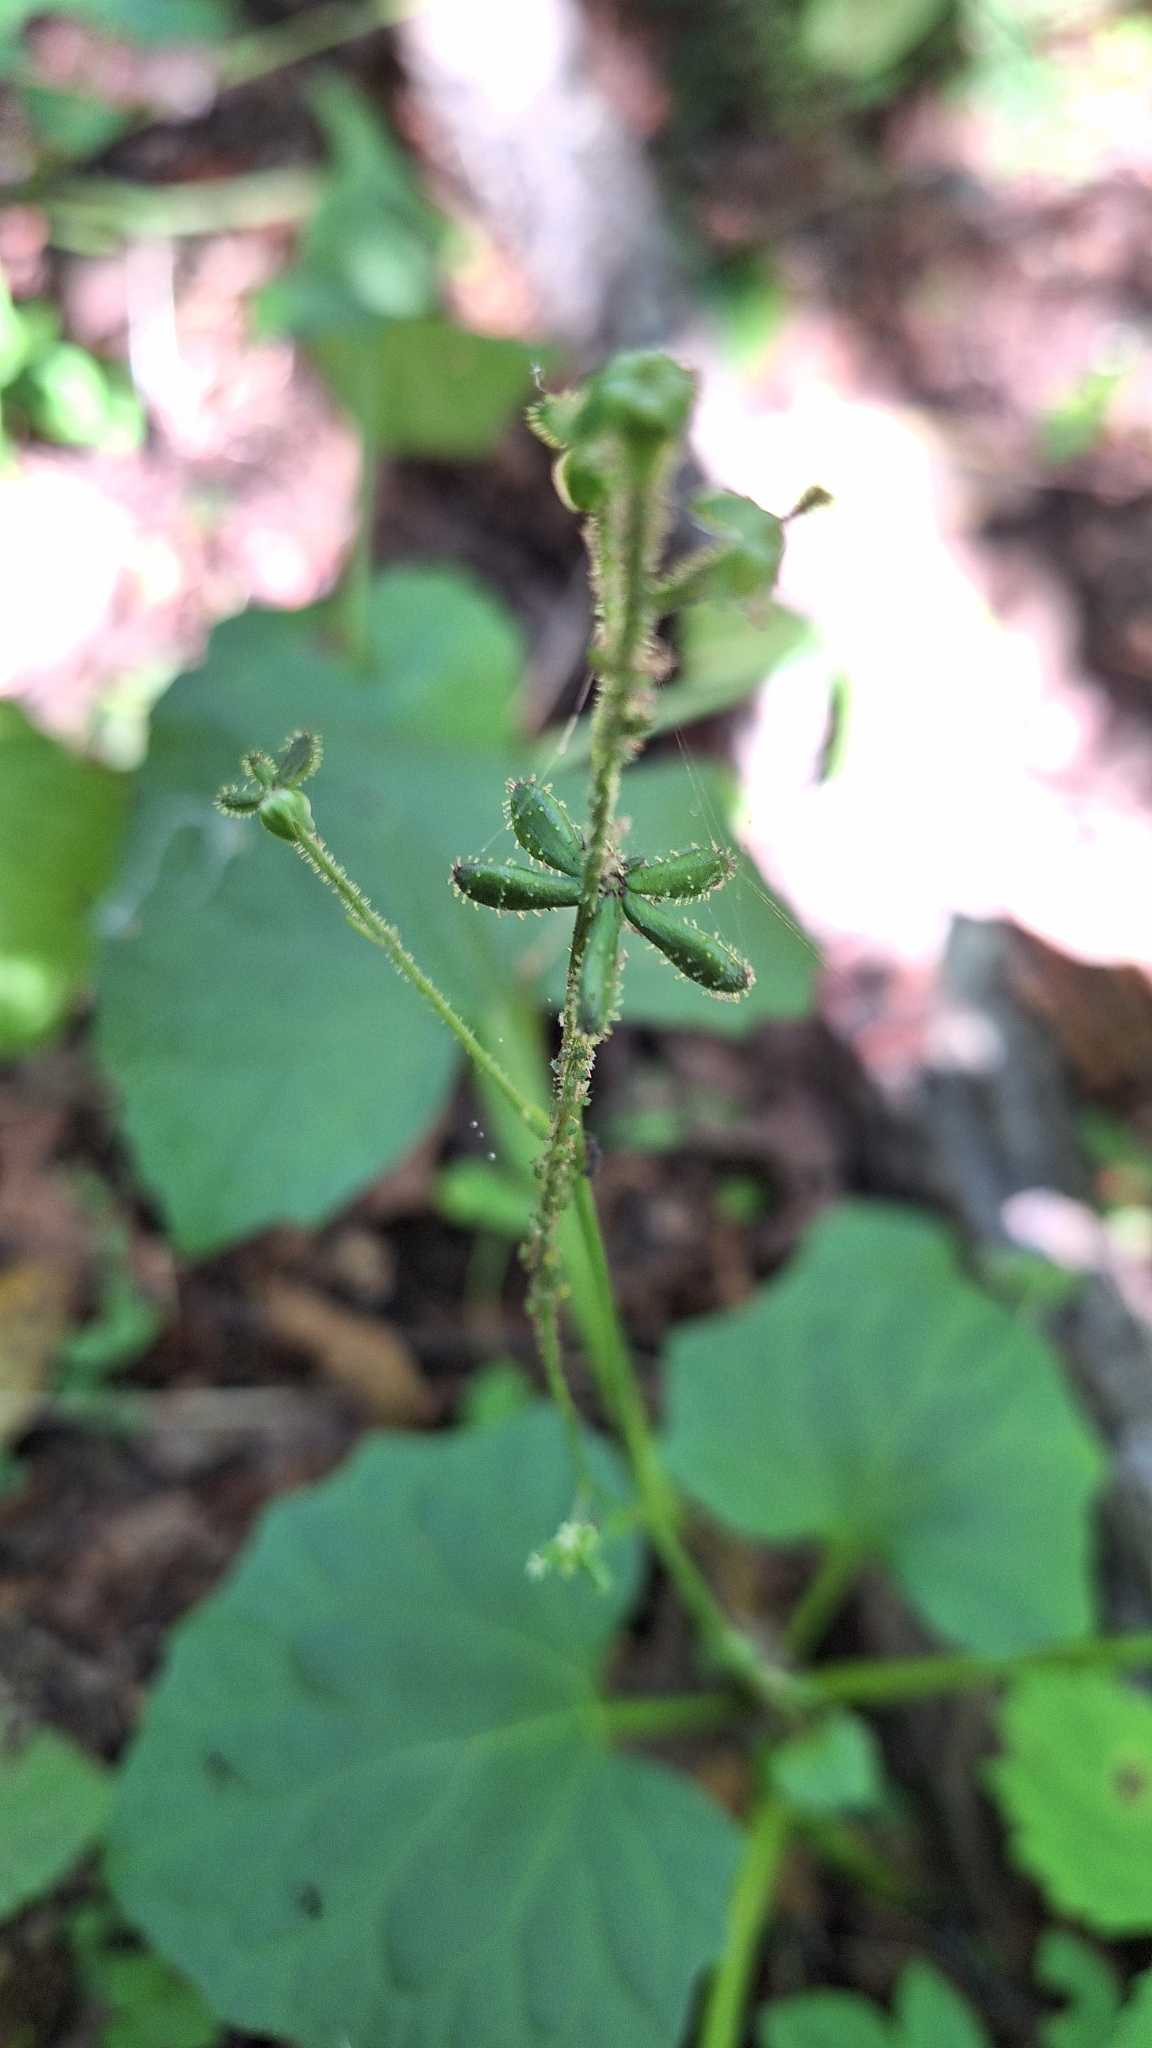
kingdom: Plantae
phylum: Tracheophyta
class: Magnoliopsida
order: Asterales
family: Asteraceae
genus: Adenocaulon
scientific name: Adenocaulon himalaicum
